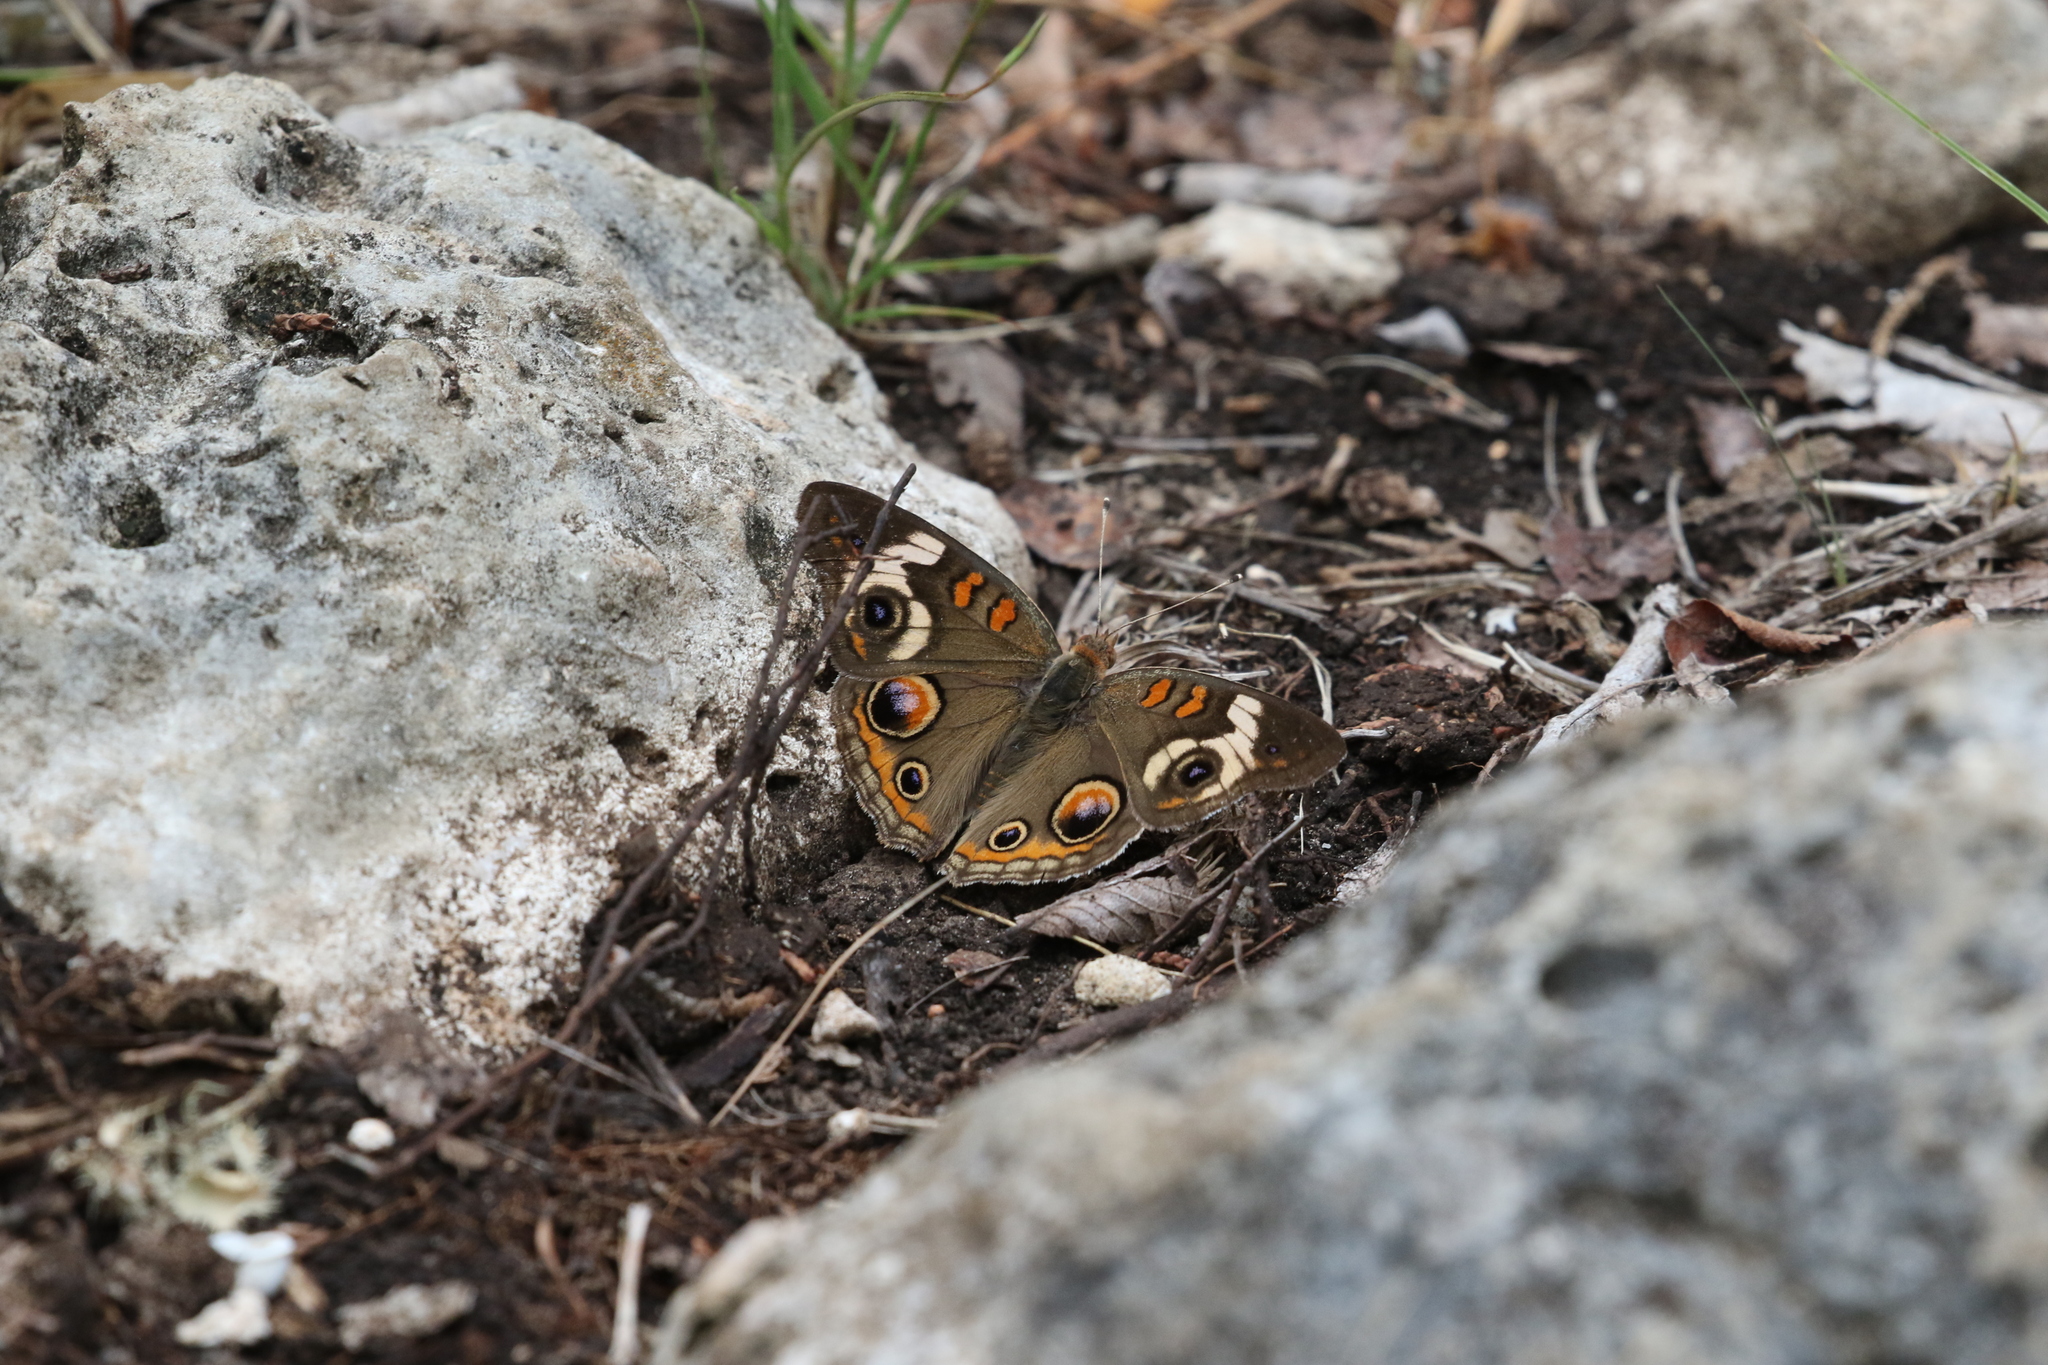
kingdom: Animalia
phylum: Arthropoda
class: Insecta
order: Lepidoptera
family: Nymphalidae
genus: Junonia
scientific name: Junonia coenia
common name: Common buckeye
